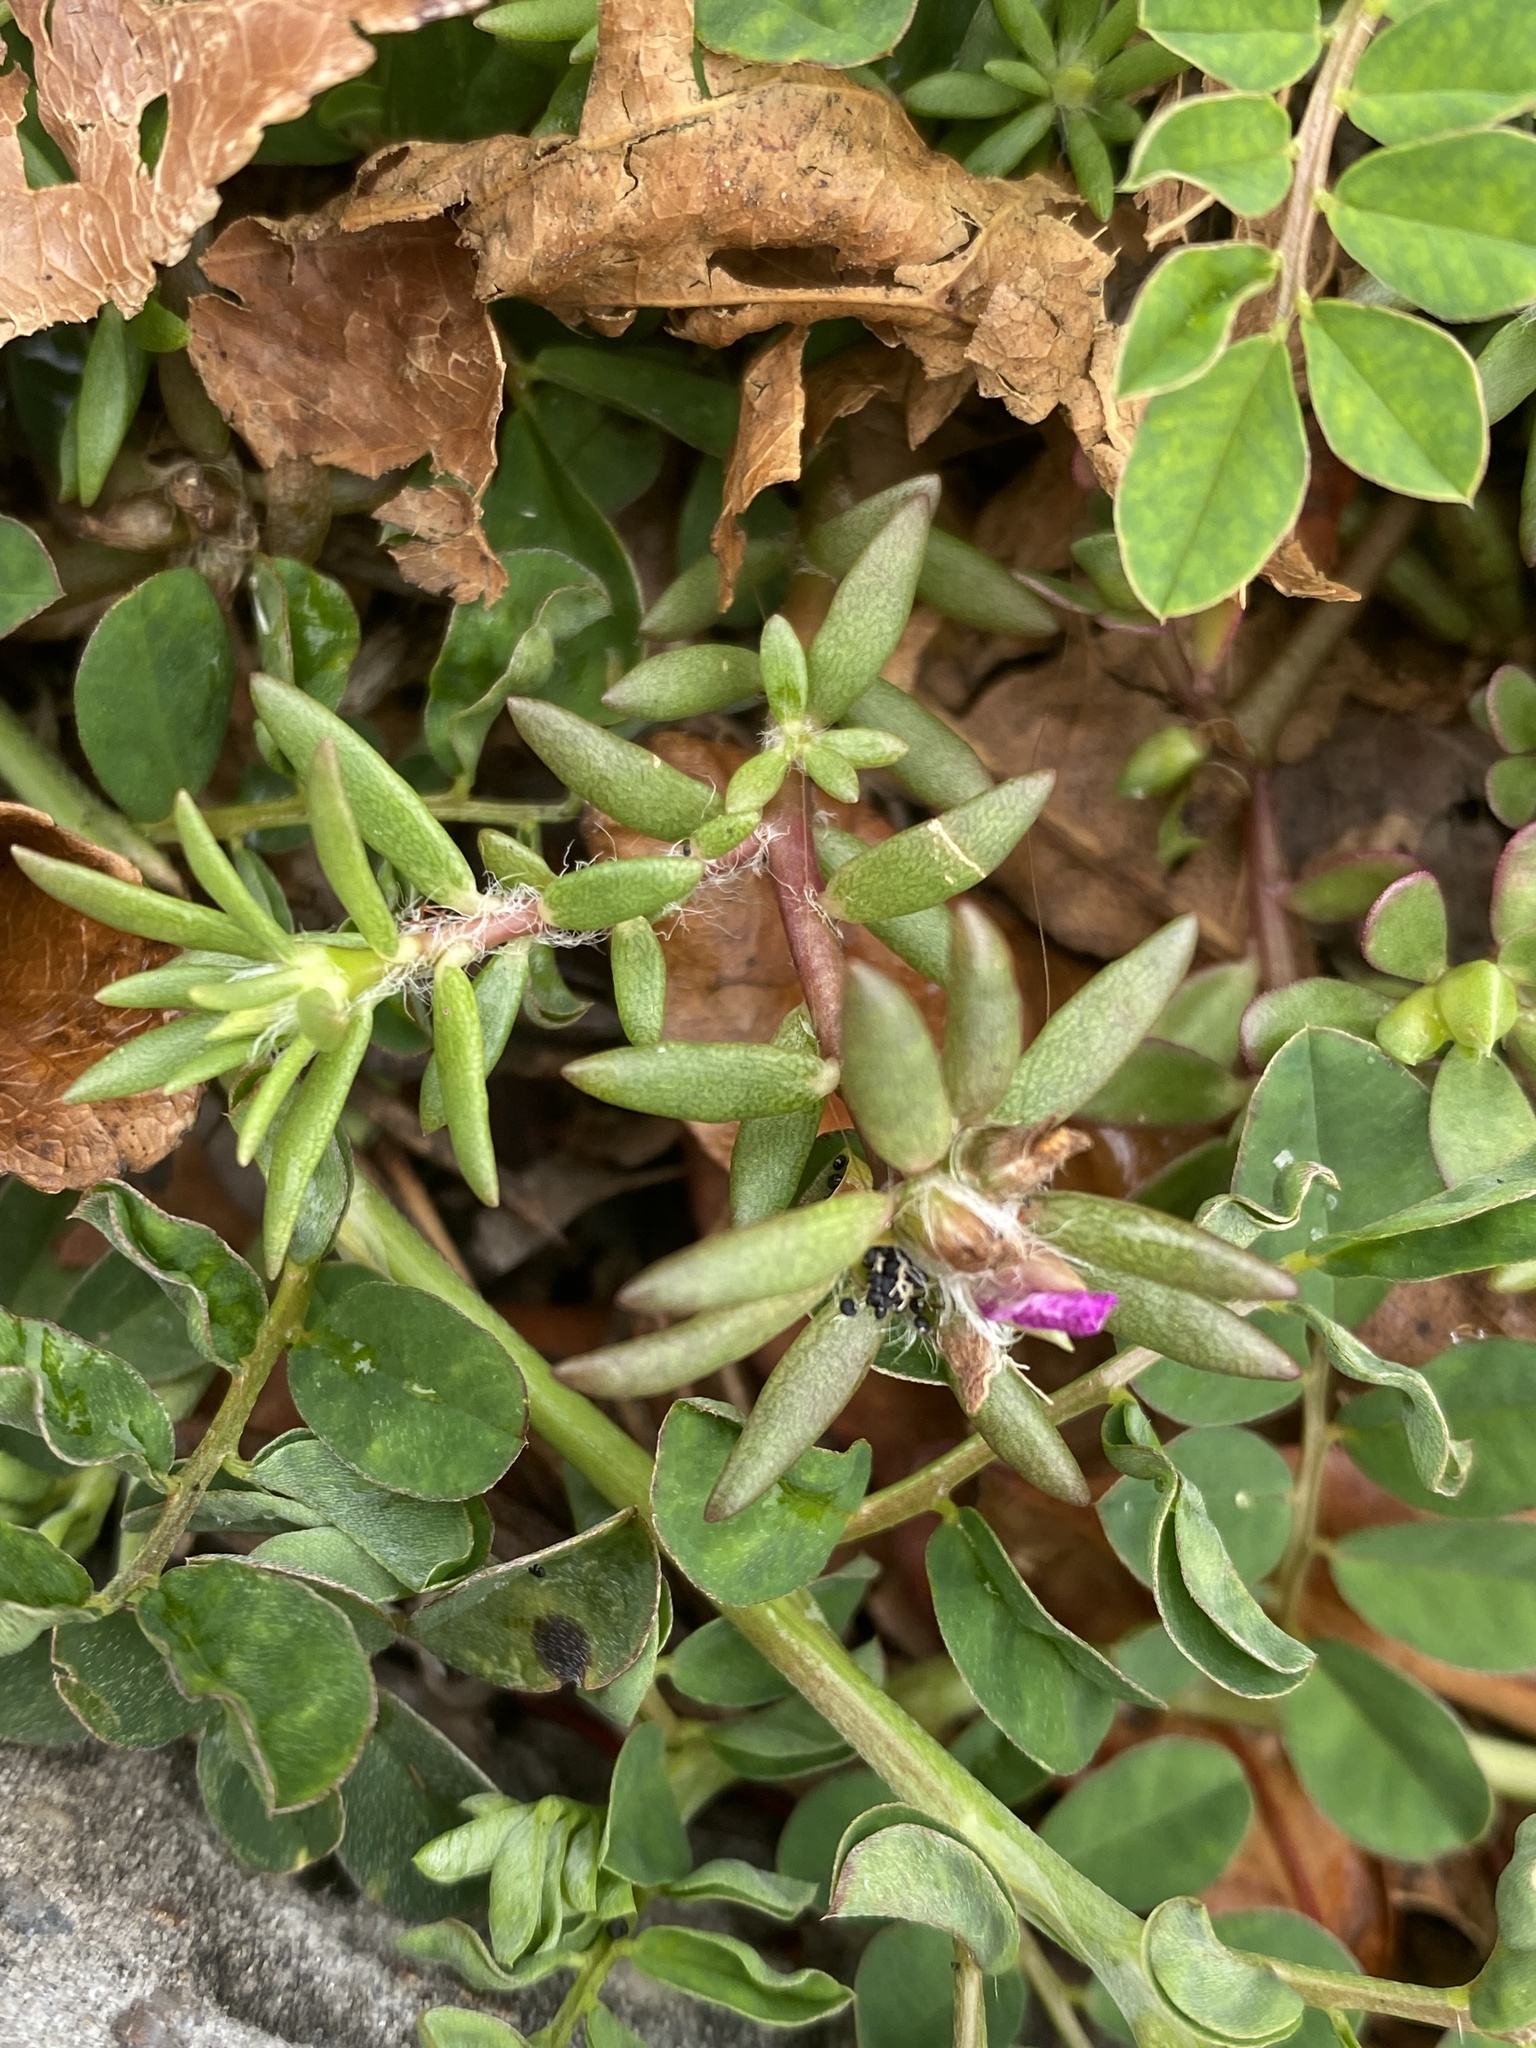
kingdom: Plantae
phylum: Tracheophyta
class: Magnoliopsida
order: Caryophyllales
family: Portulacaceae
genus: Portulaca
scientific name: Portulaca pilosa
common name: Kiss me quick
